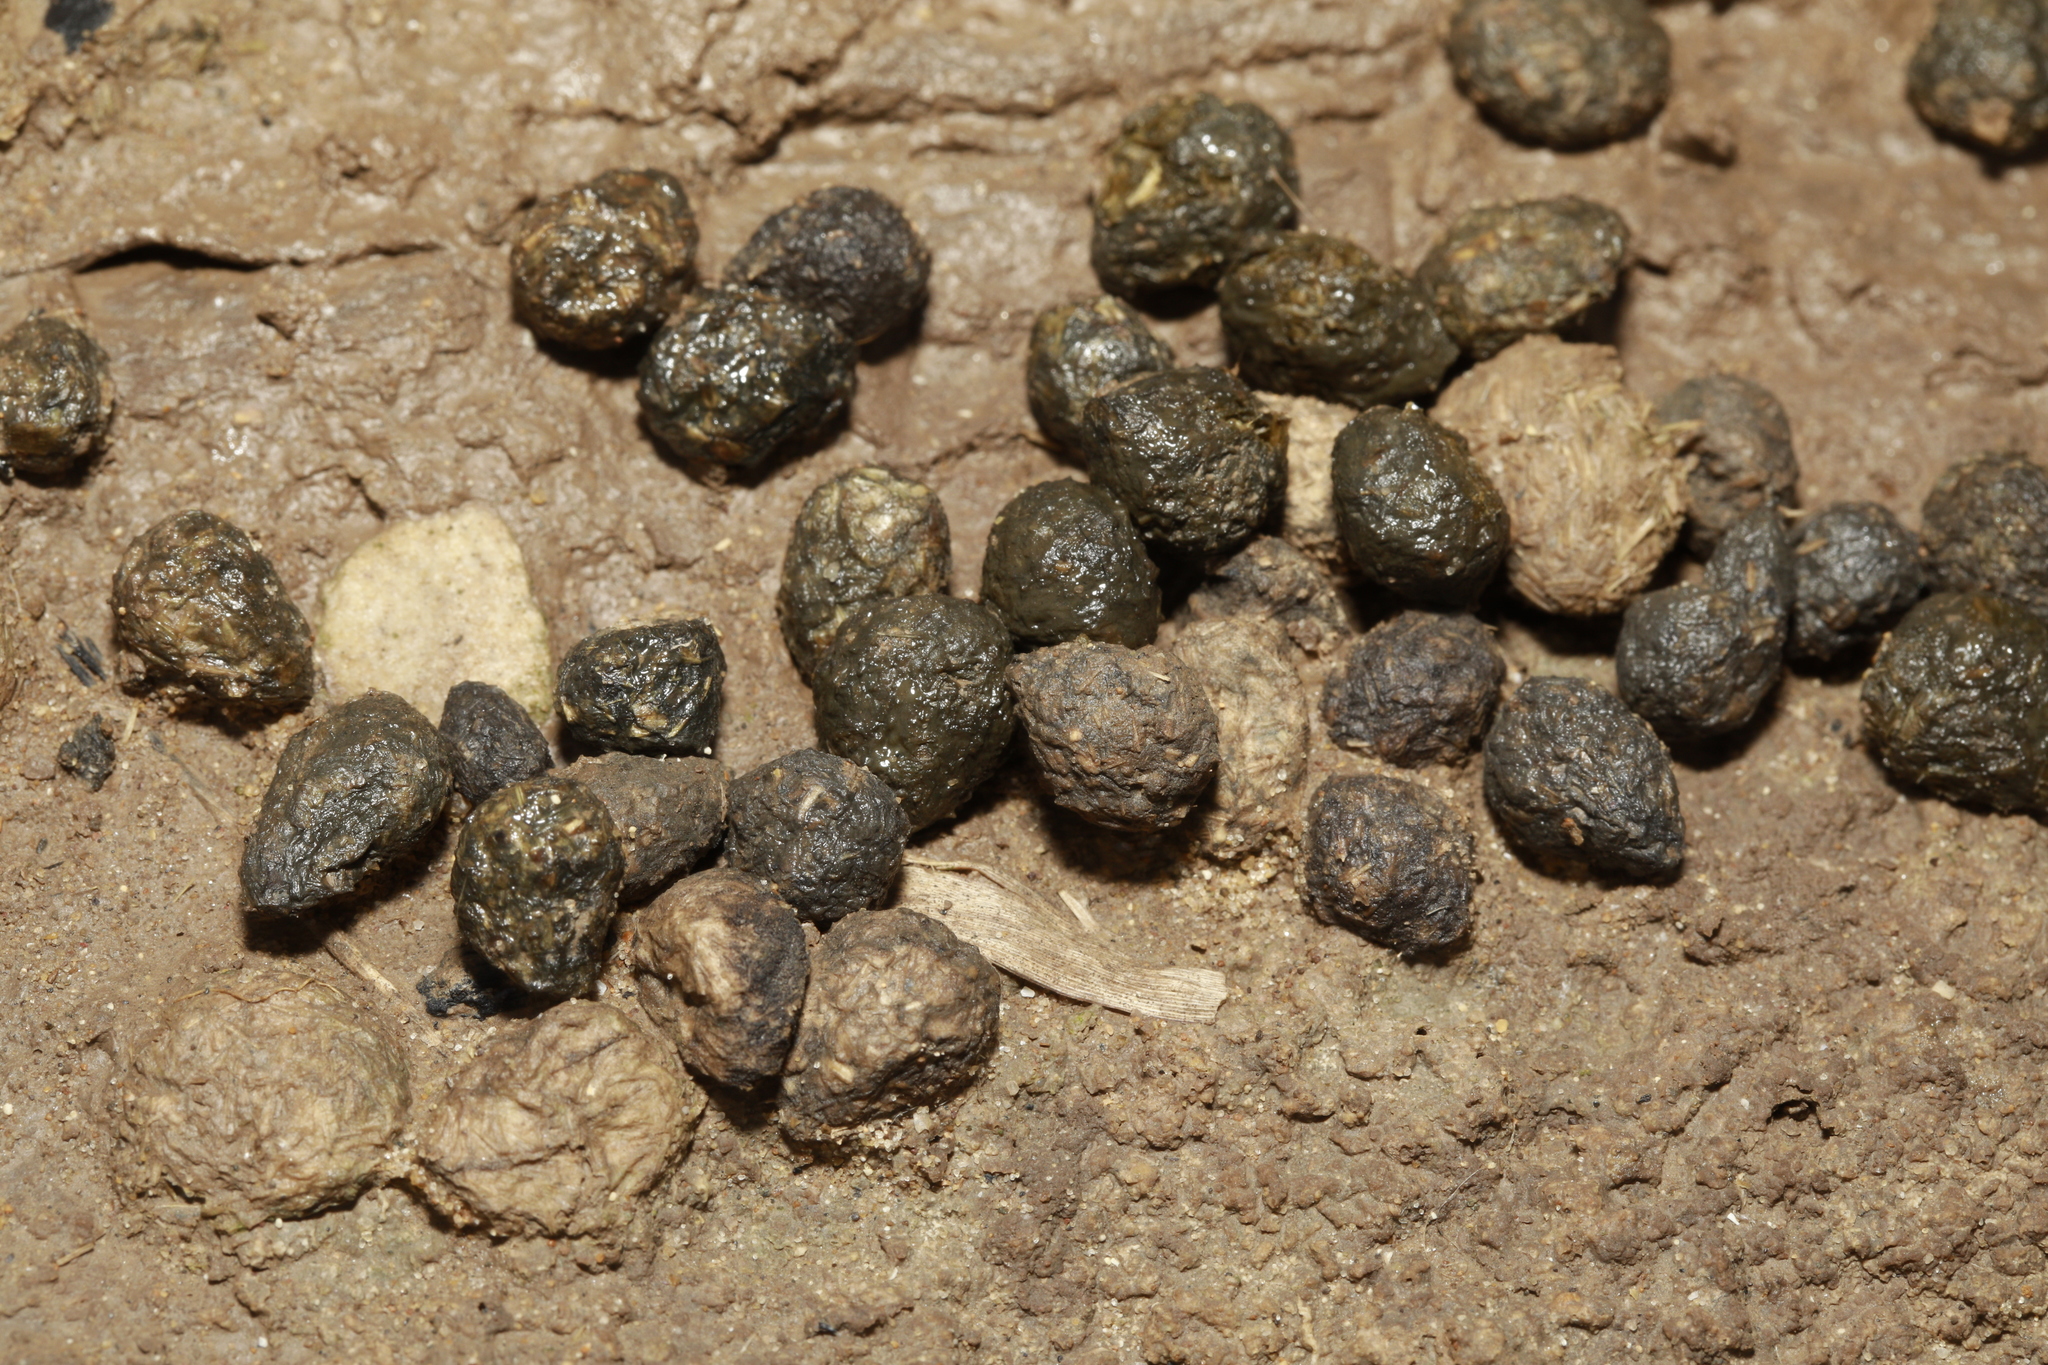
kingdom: Animalia
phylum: Chordata
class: Mammalia
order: Lagomorpha
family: Leporidae
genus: Oryctolagus
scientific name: Oryctolagus cuniculus
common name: European rabbit
